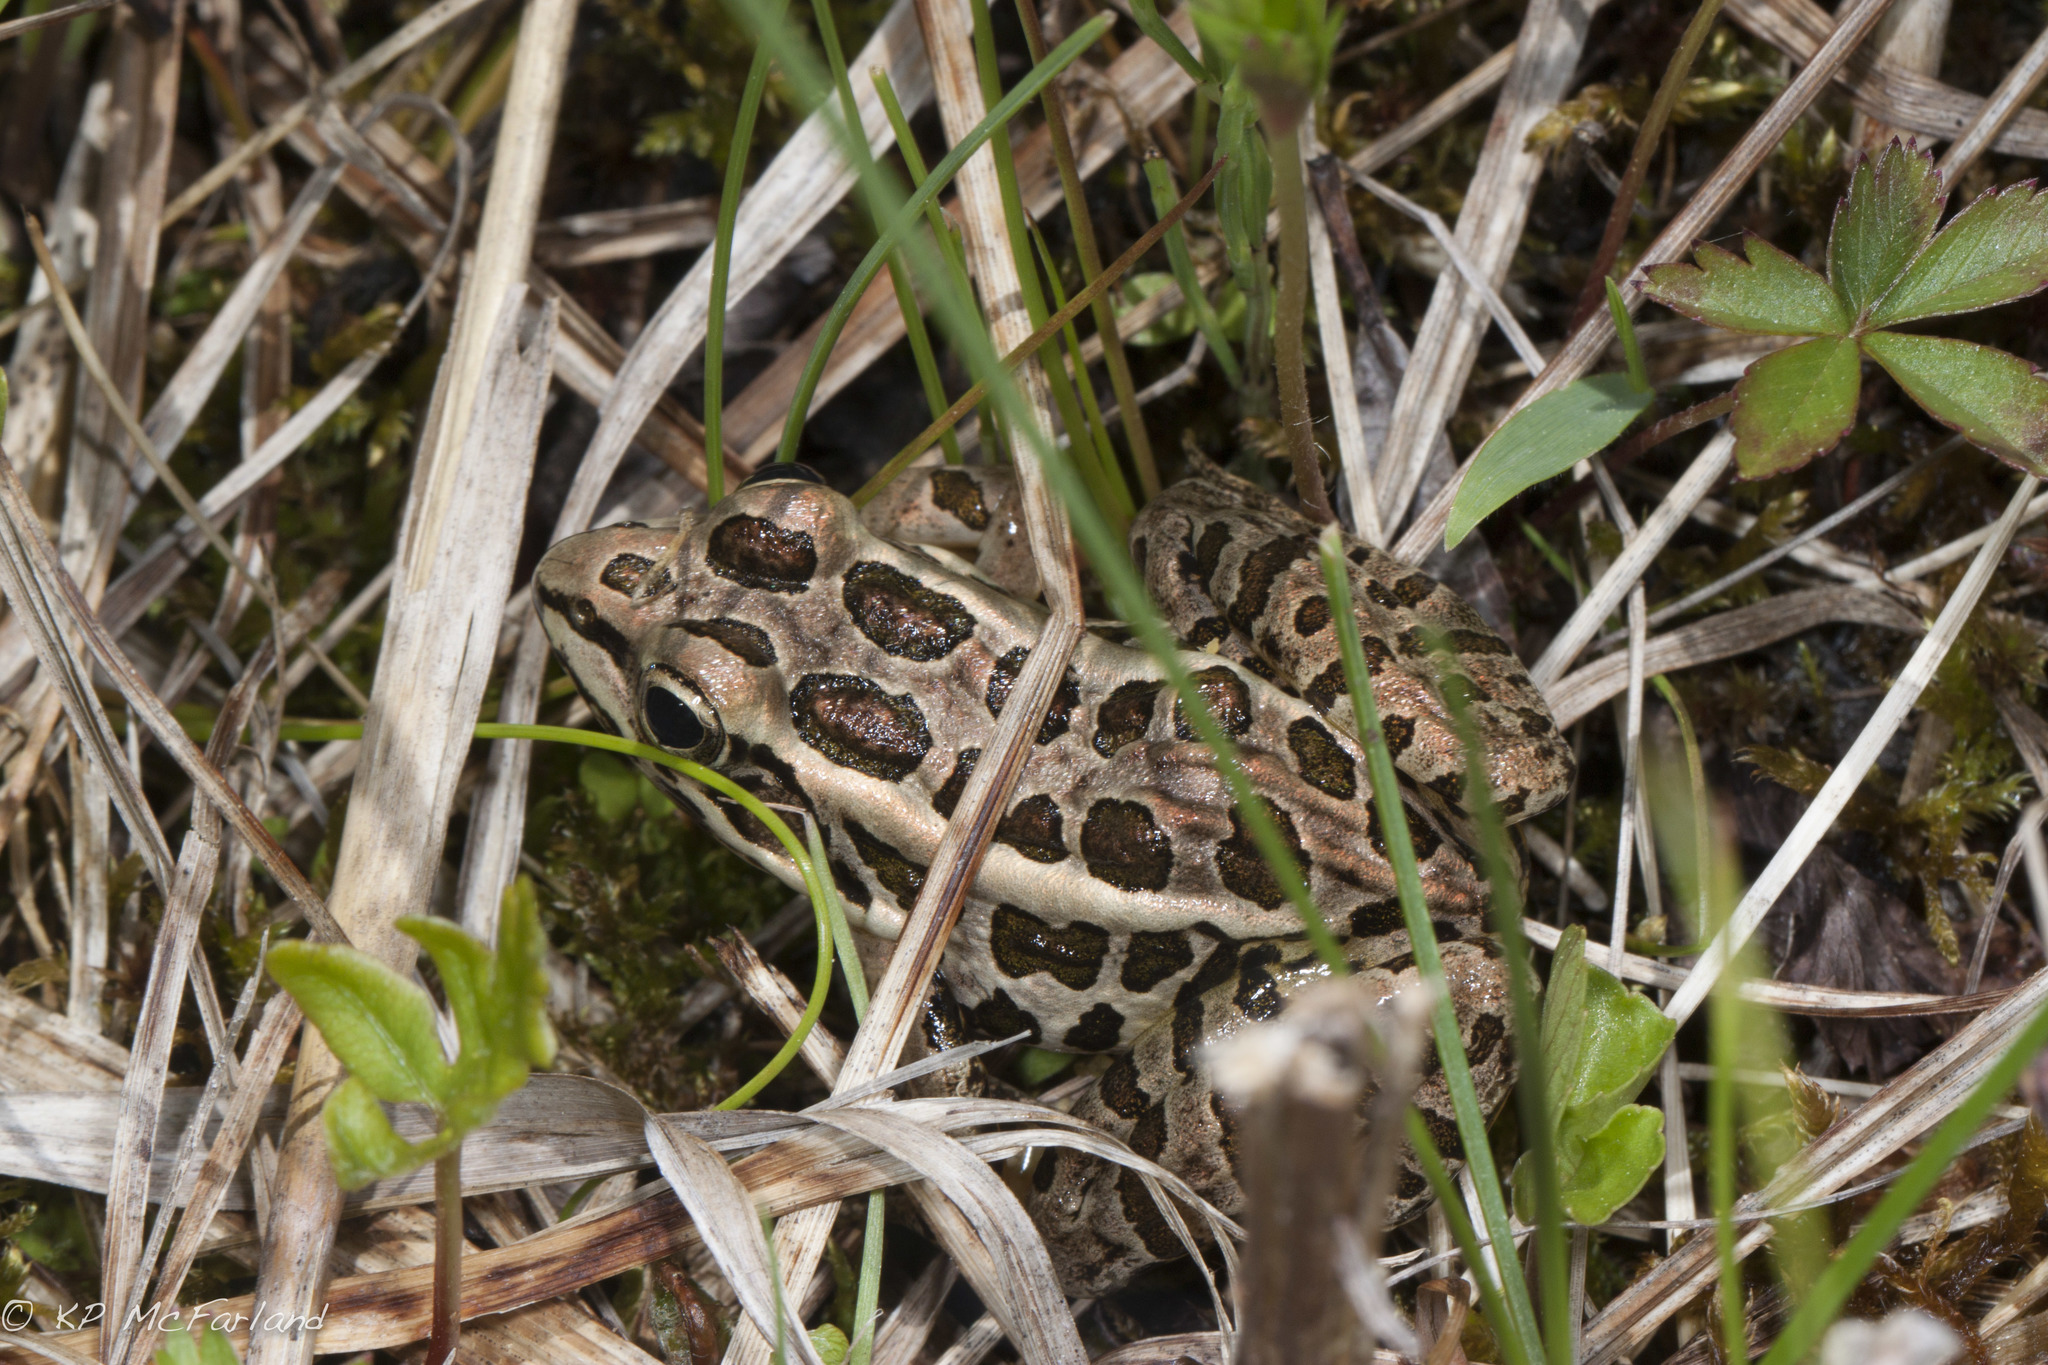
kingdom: Animalia
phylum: Chordata
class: Amphibia
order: Anura
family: Ranidae
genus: Lithobates
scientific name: Lithobates palustris
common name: Pickerel frog
